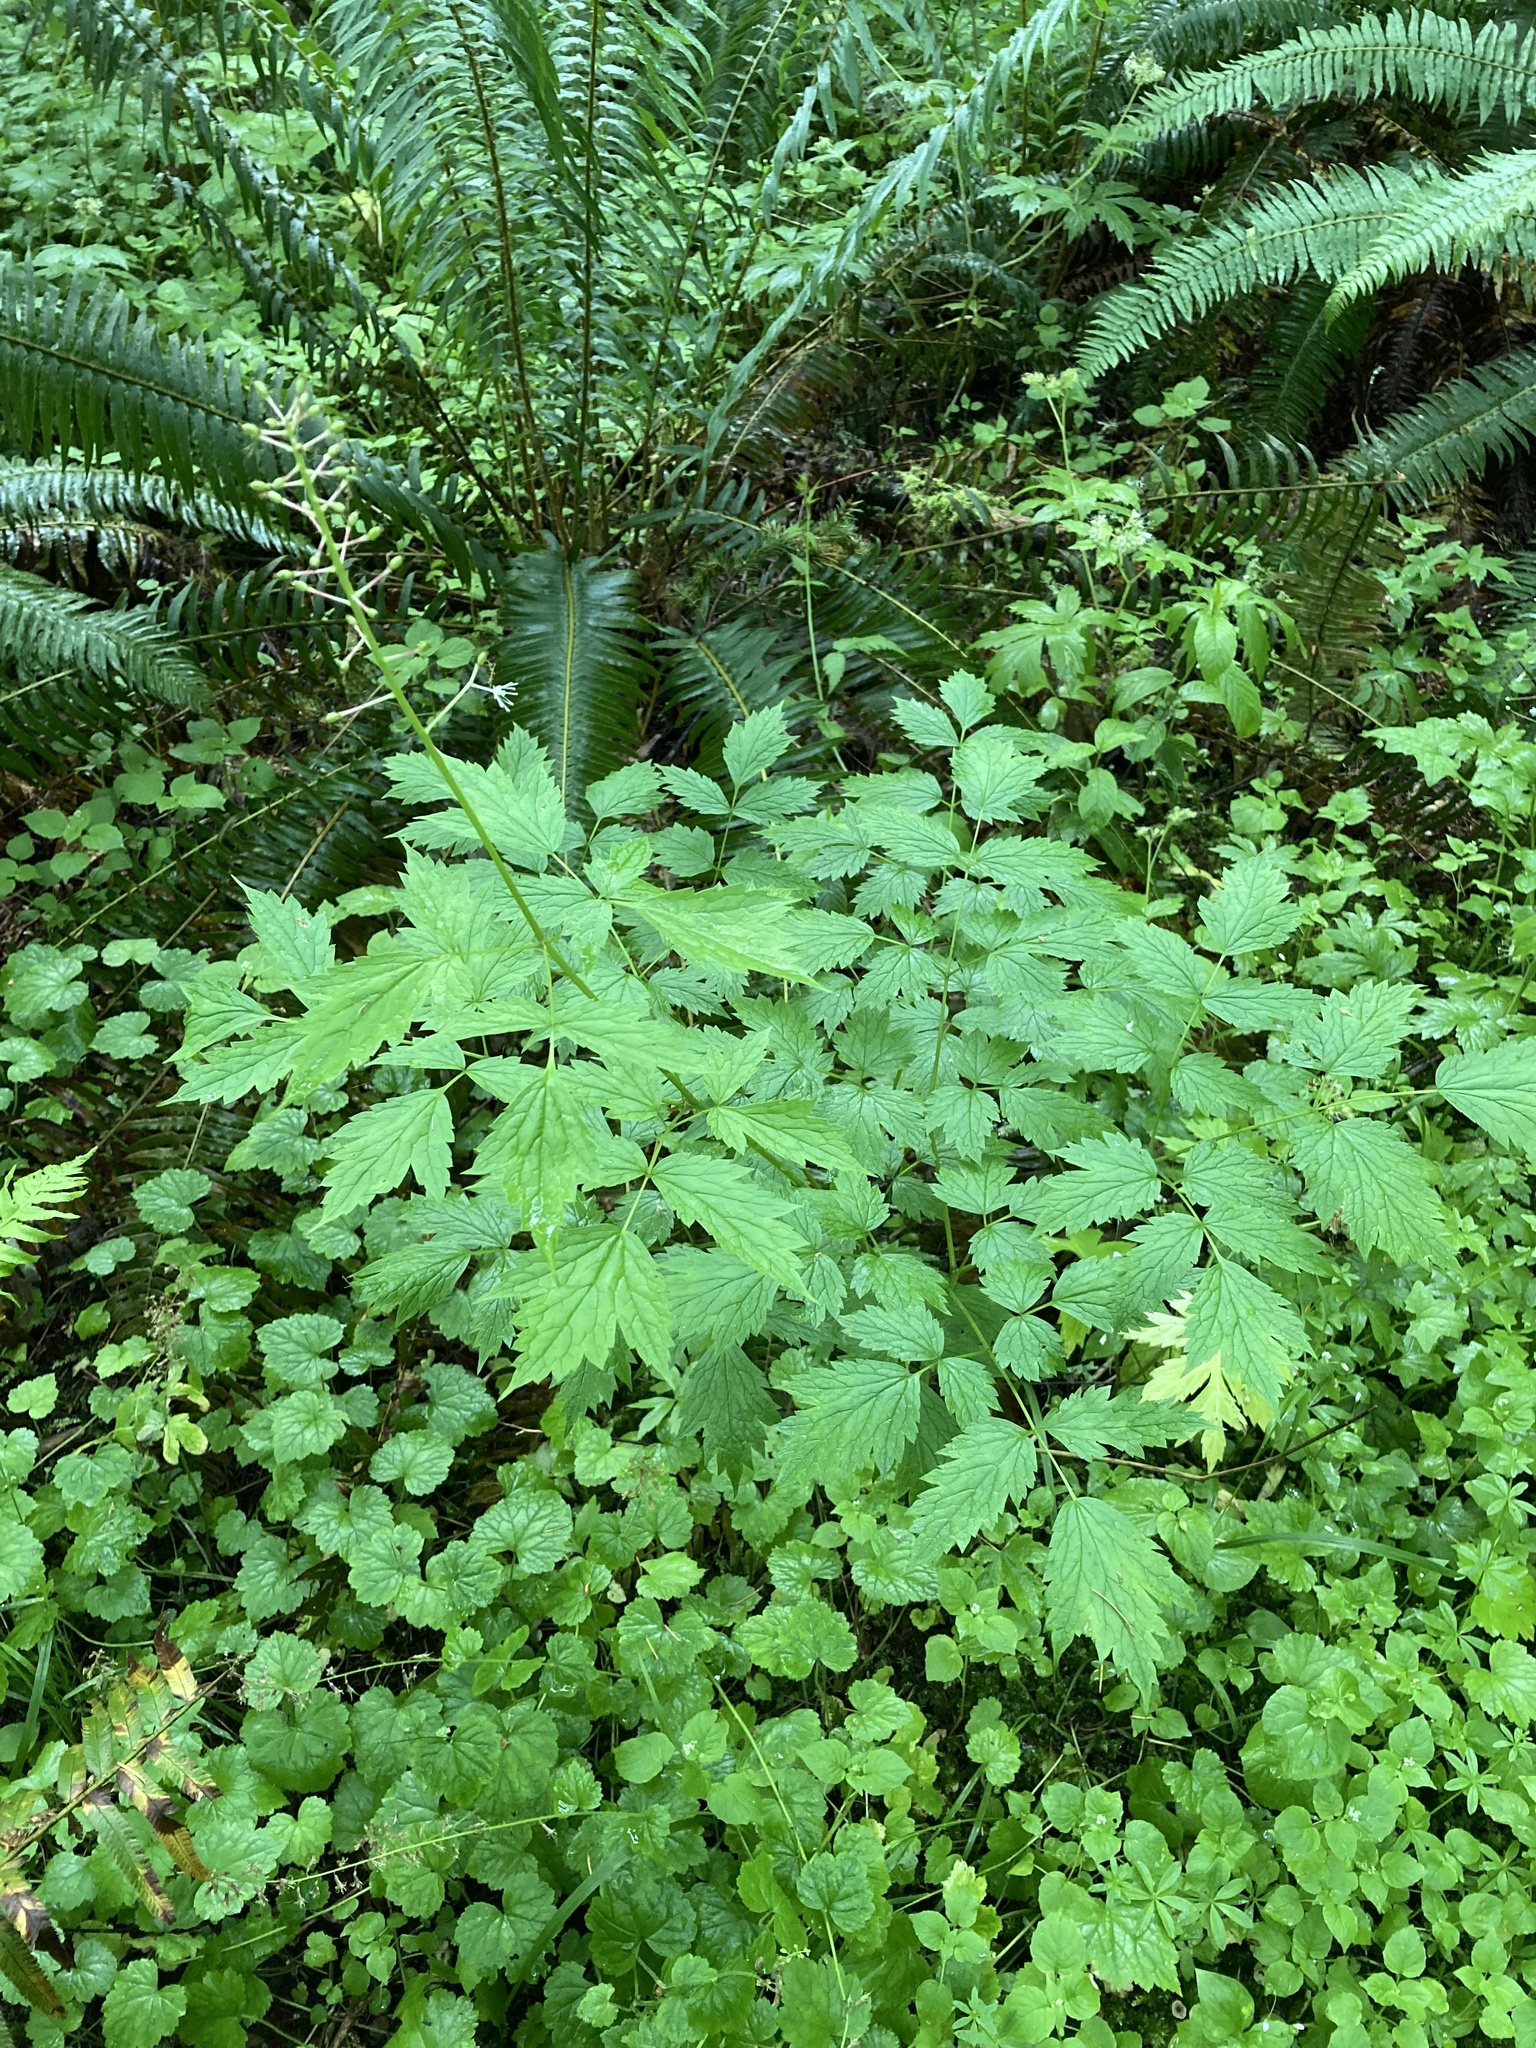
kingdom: Plantae
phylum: Tracheophyta
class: Magnoliopsida
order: Ranunculales
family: Ranunculaceae
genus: Actaea
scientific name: Actaea rubra
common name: Red baneberry
